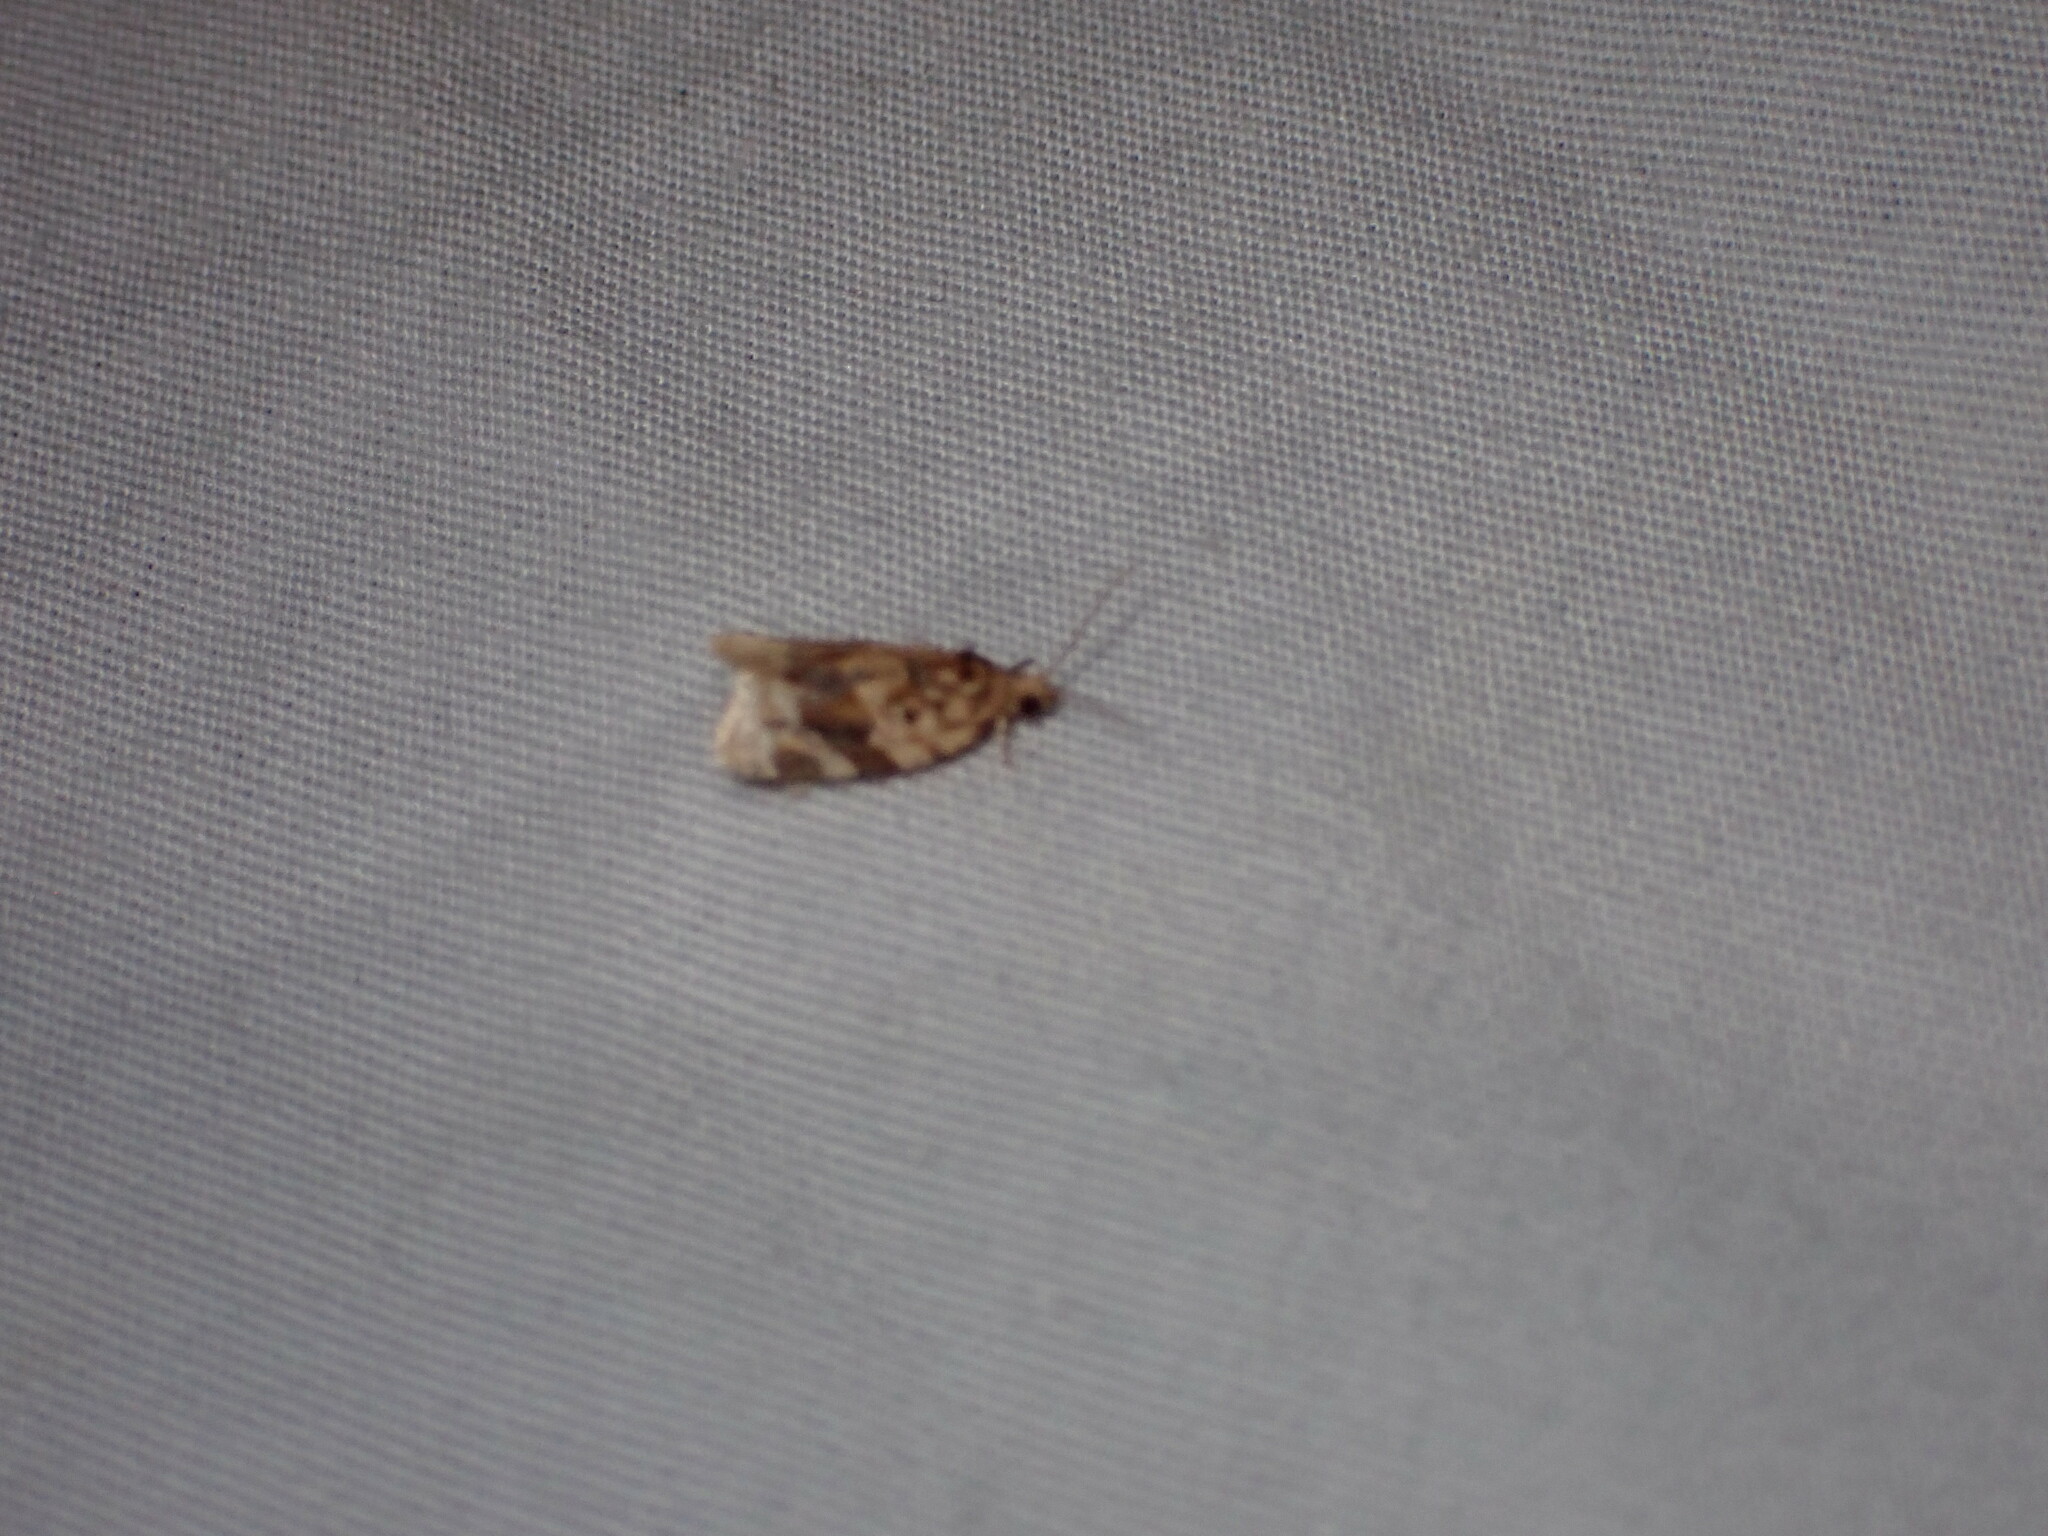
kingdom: Animalia
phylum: Arthropoda
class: Insecta
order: Lepidoptera
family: Tortricidae
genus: Argyrotaenia
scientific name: Argyrotaenia velutinana
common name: Red-banded leafroller moth
